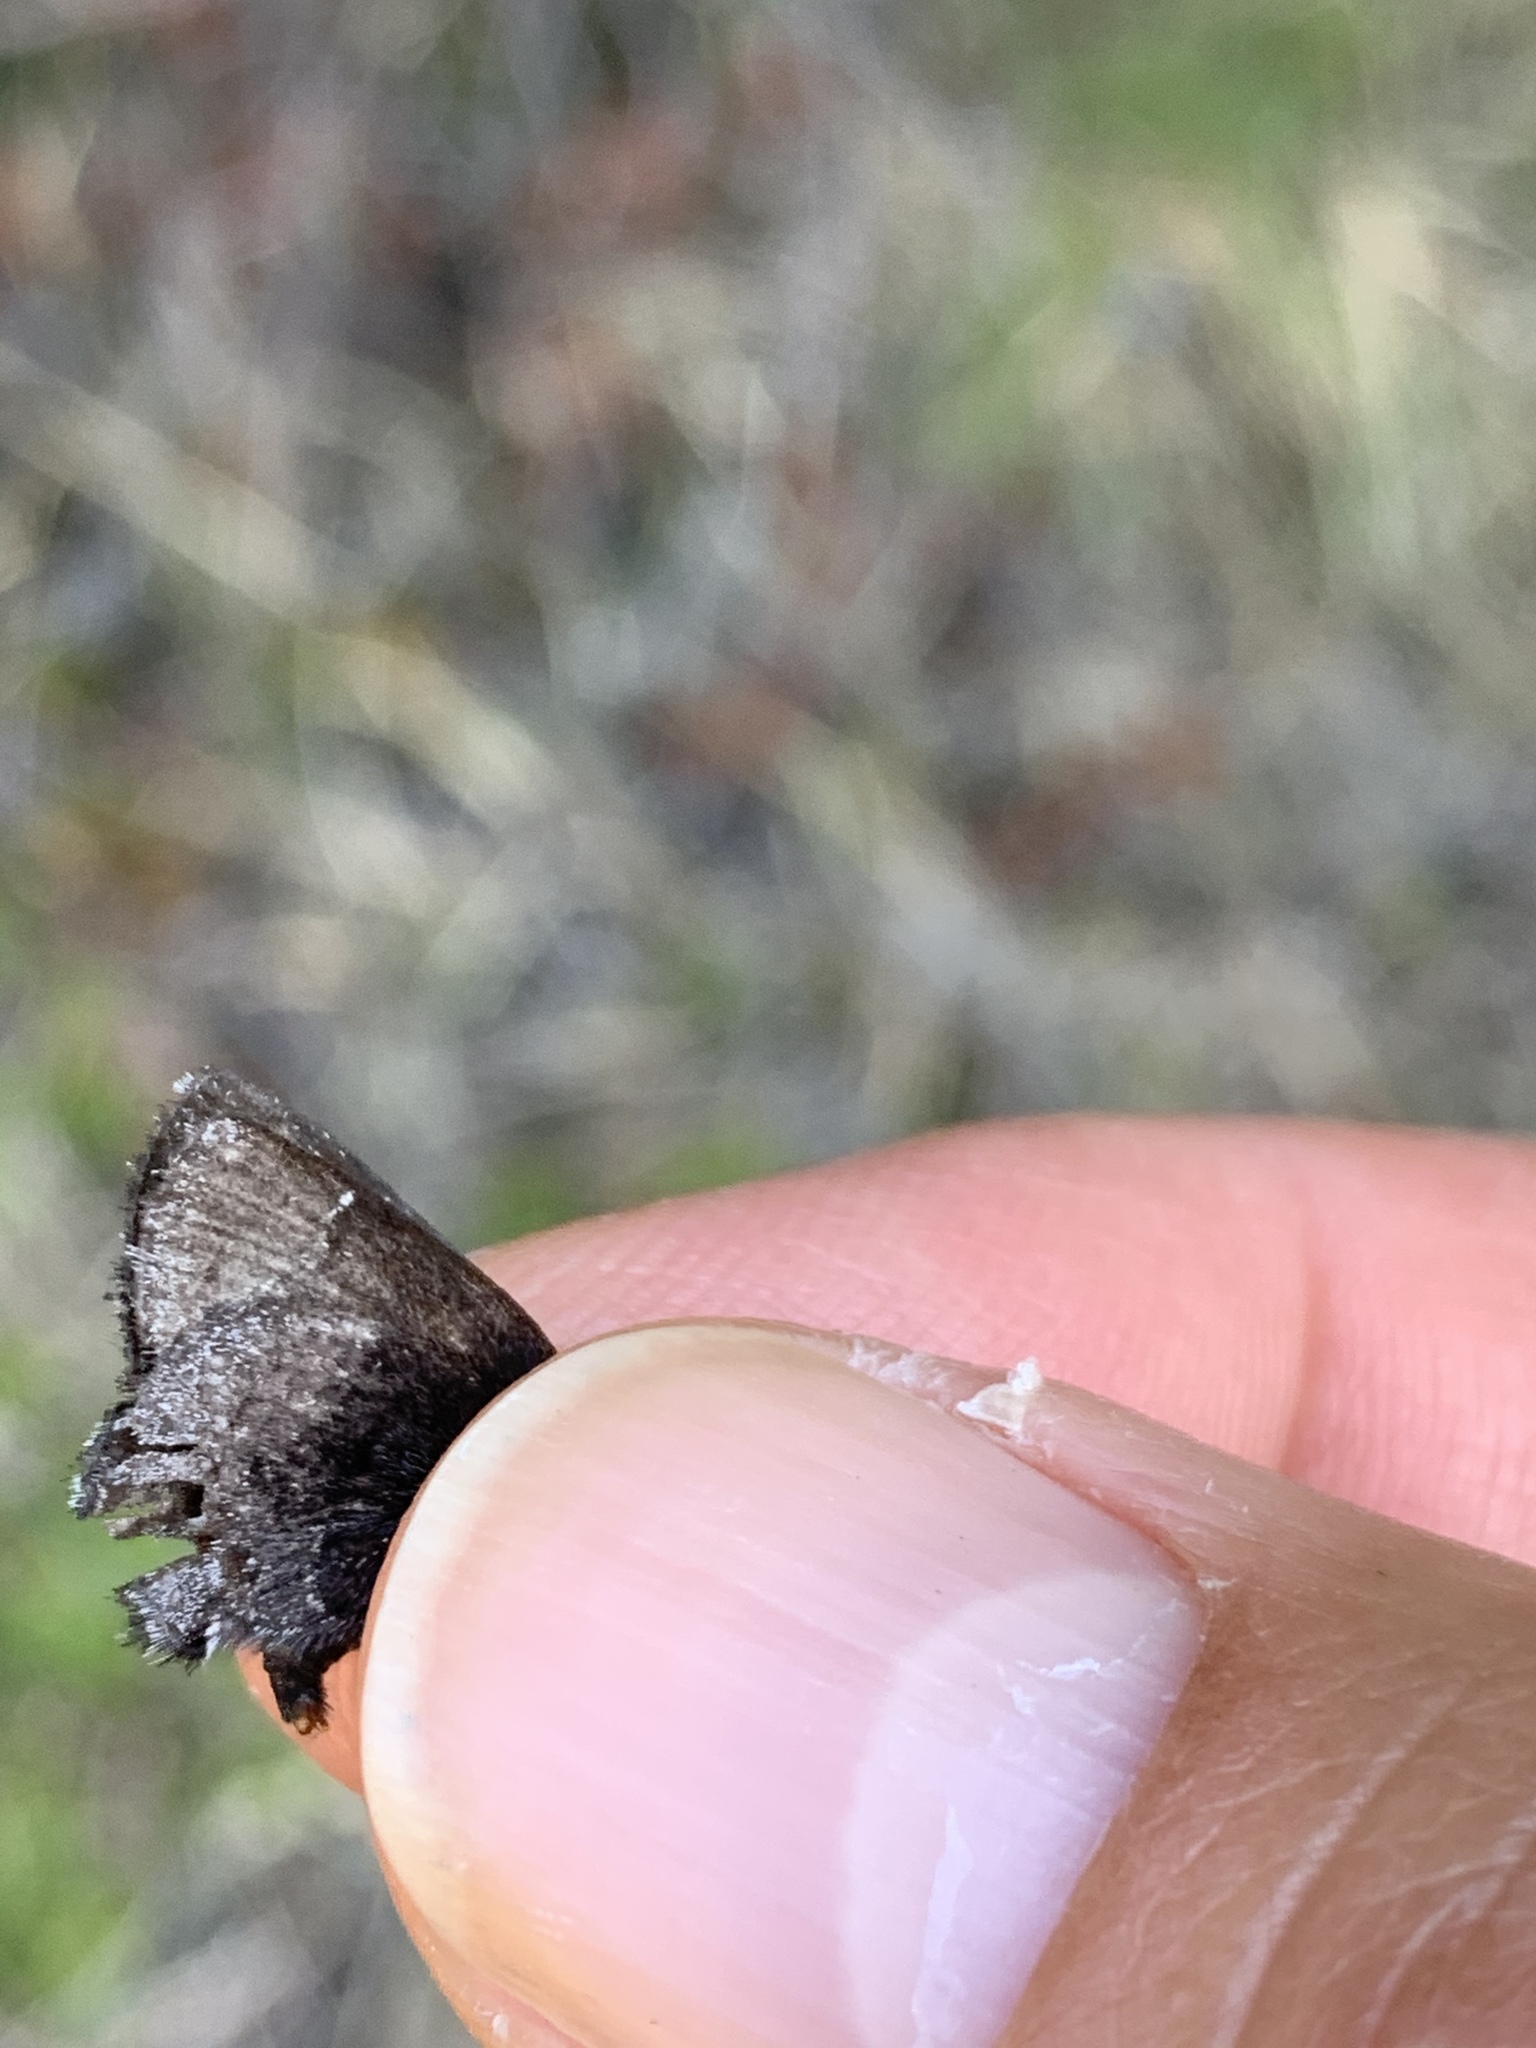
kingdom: Animalia
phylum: Arthropoda
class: Insecta
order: Lepidoptera
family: Lycaenidae
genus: Callophrys
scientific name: Callophrys polios
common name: Hoary elfin
